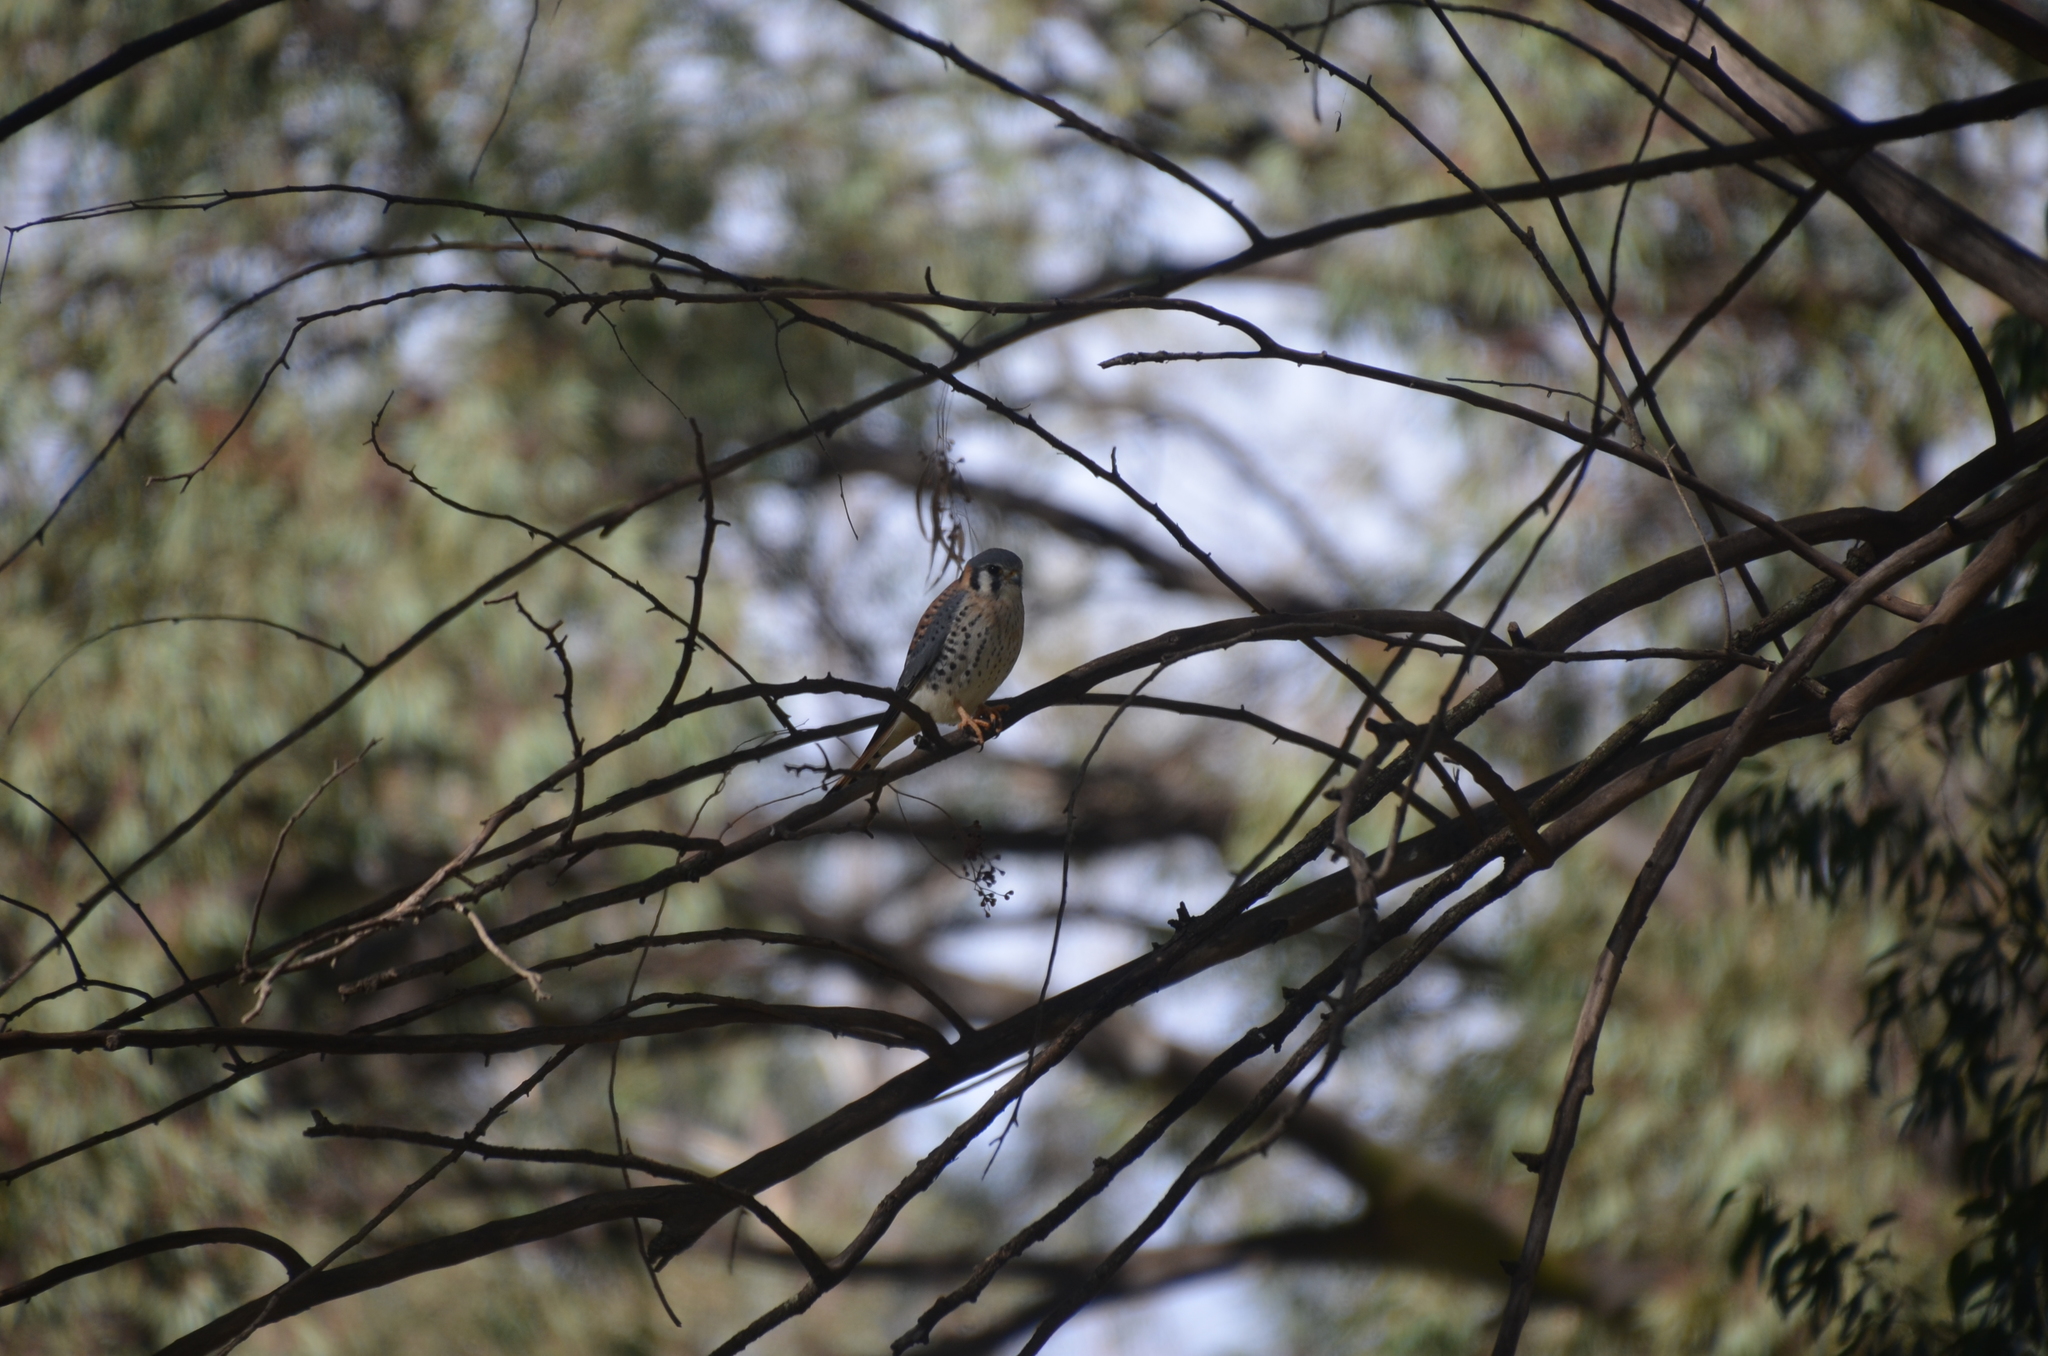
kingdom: Animalia
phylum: Chordata
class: Aves
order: Falconiformes
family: Falconidae
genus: Falco
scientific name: Falco sparverius
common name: American kestrel
